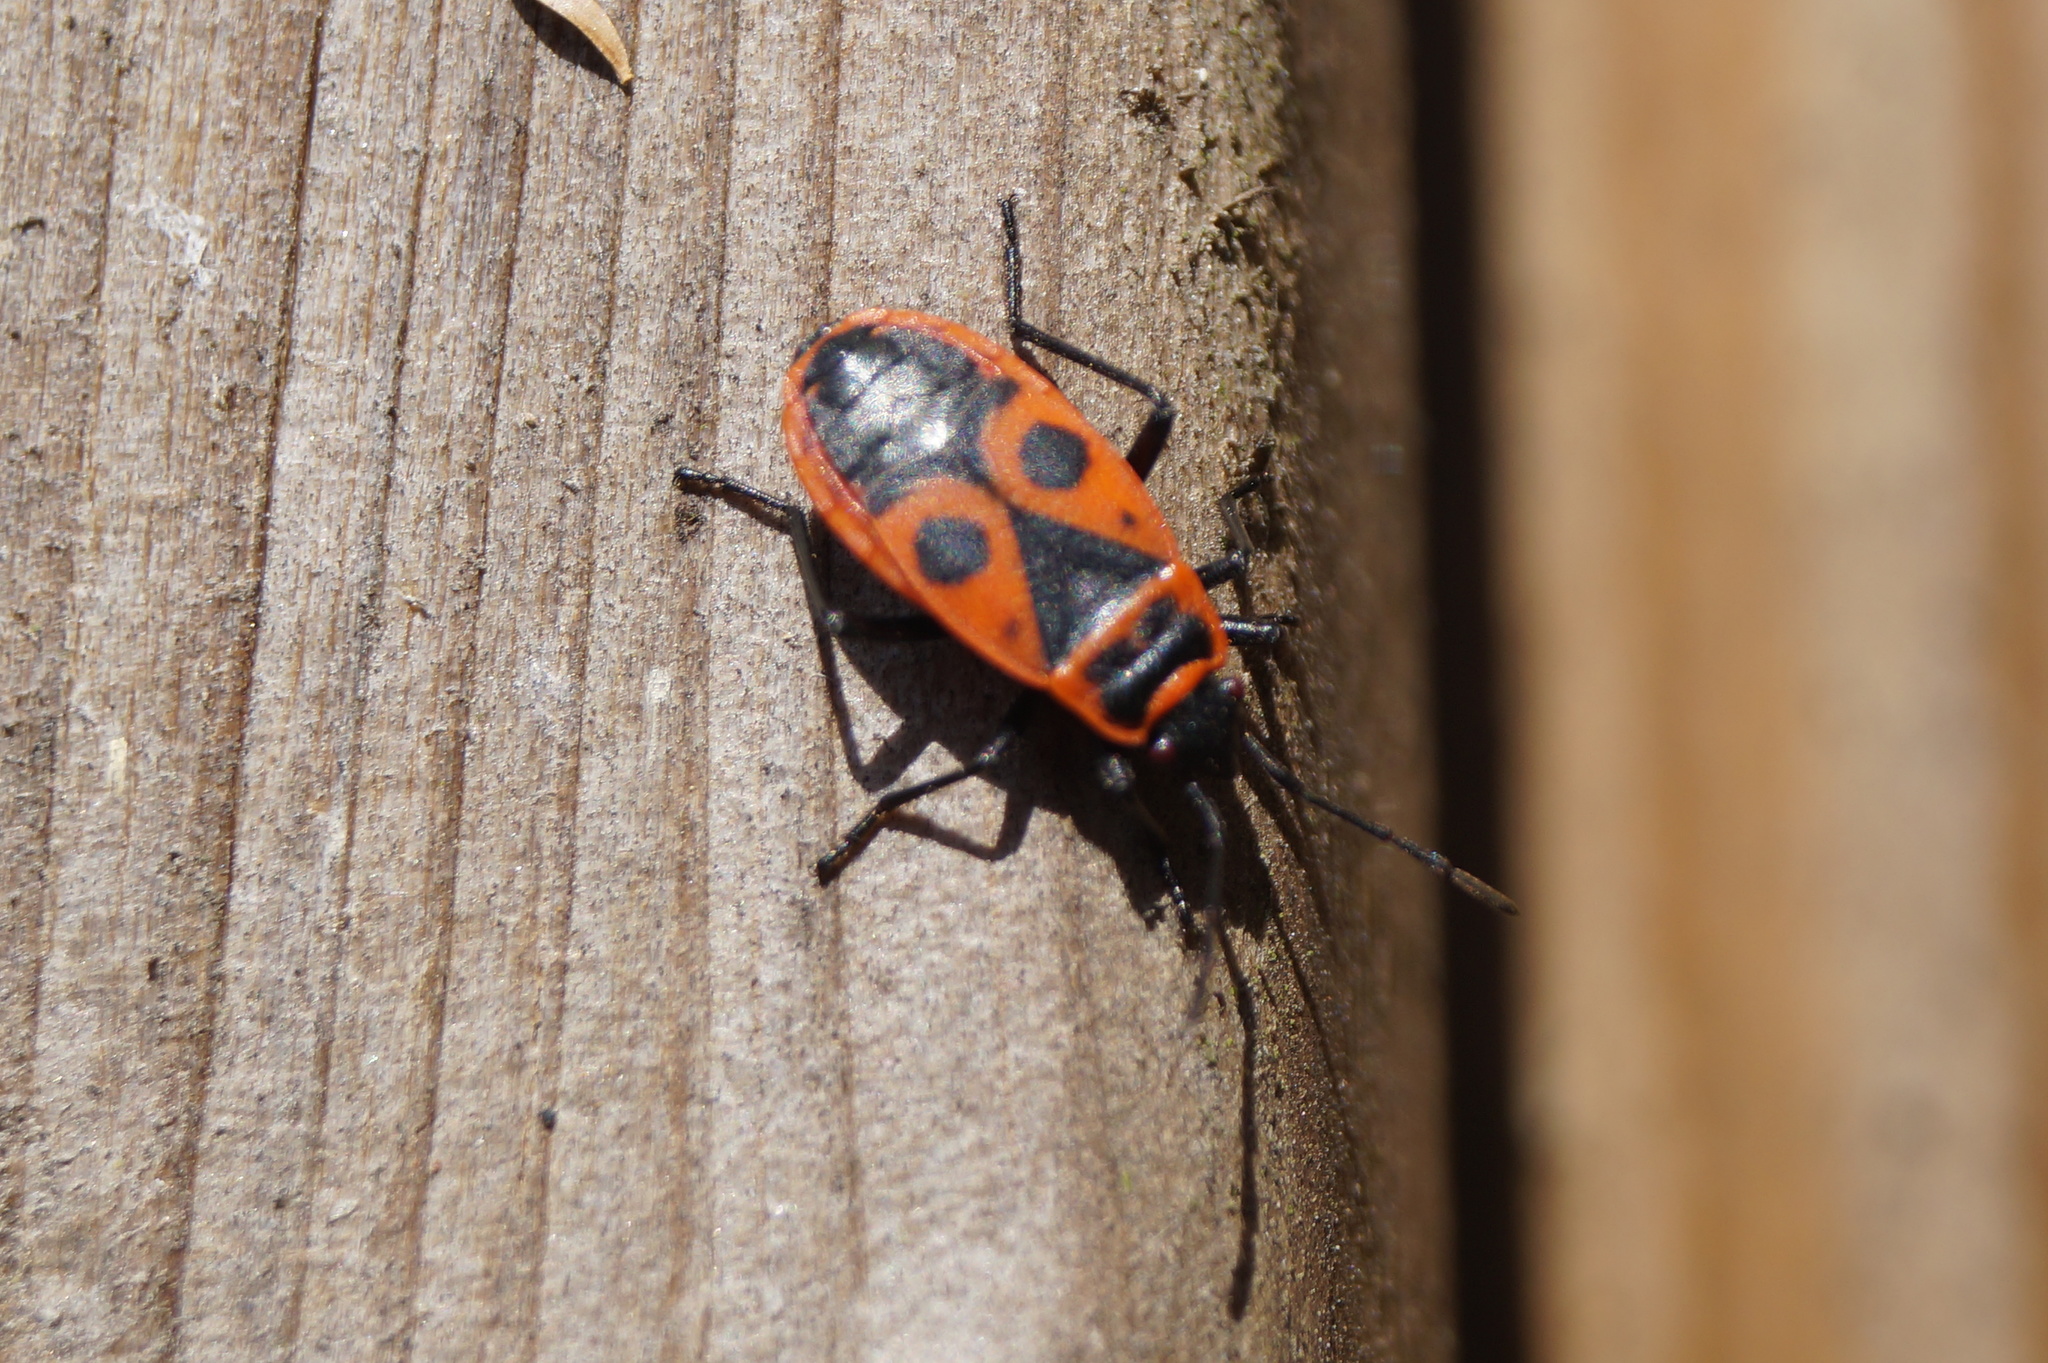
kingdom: Animalia
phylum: Arthropoda
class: Insecta
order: Hemiptera
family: Pyrrhocoridae
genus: Pyrrhocoris
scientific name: Pyrrhocoris apterus
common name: Firebug
